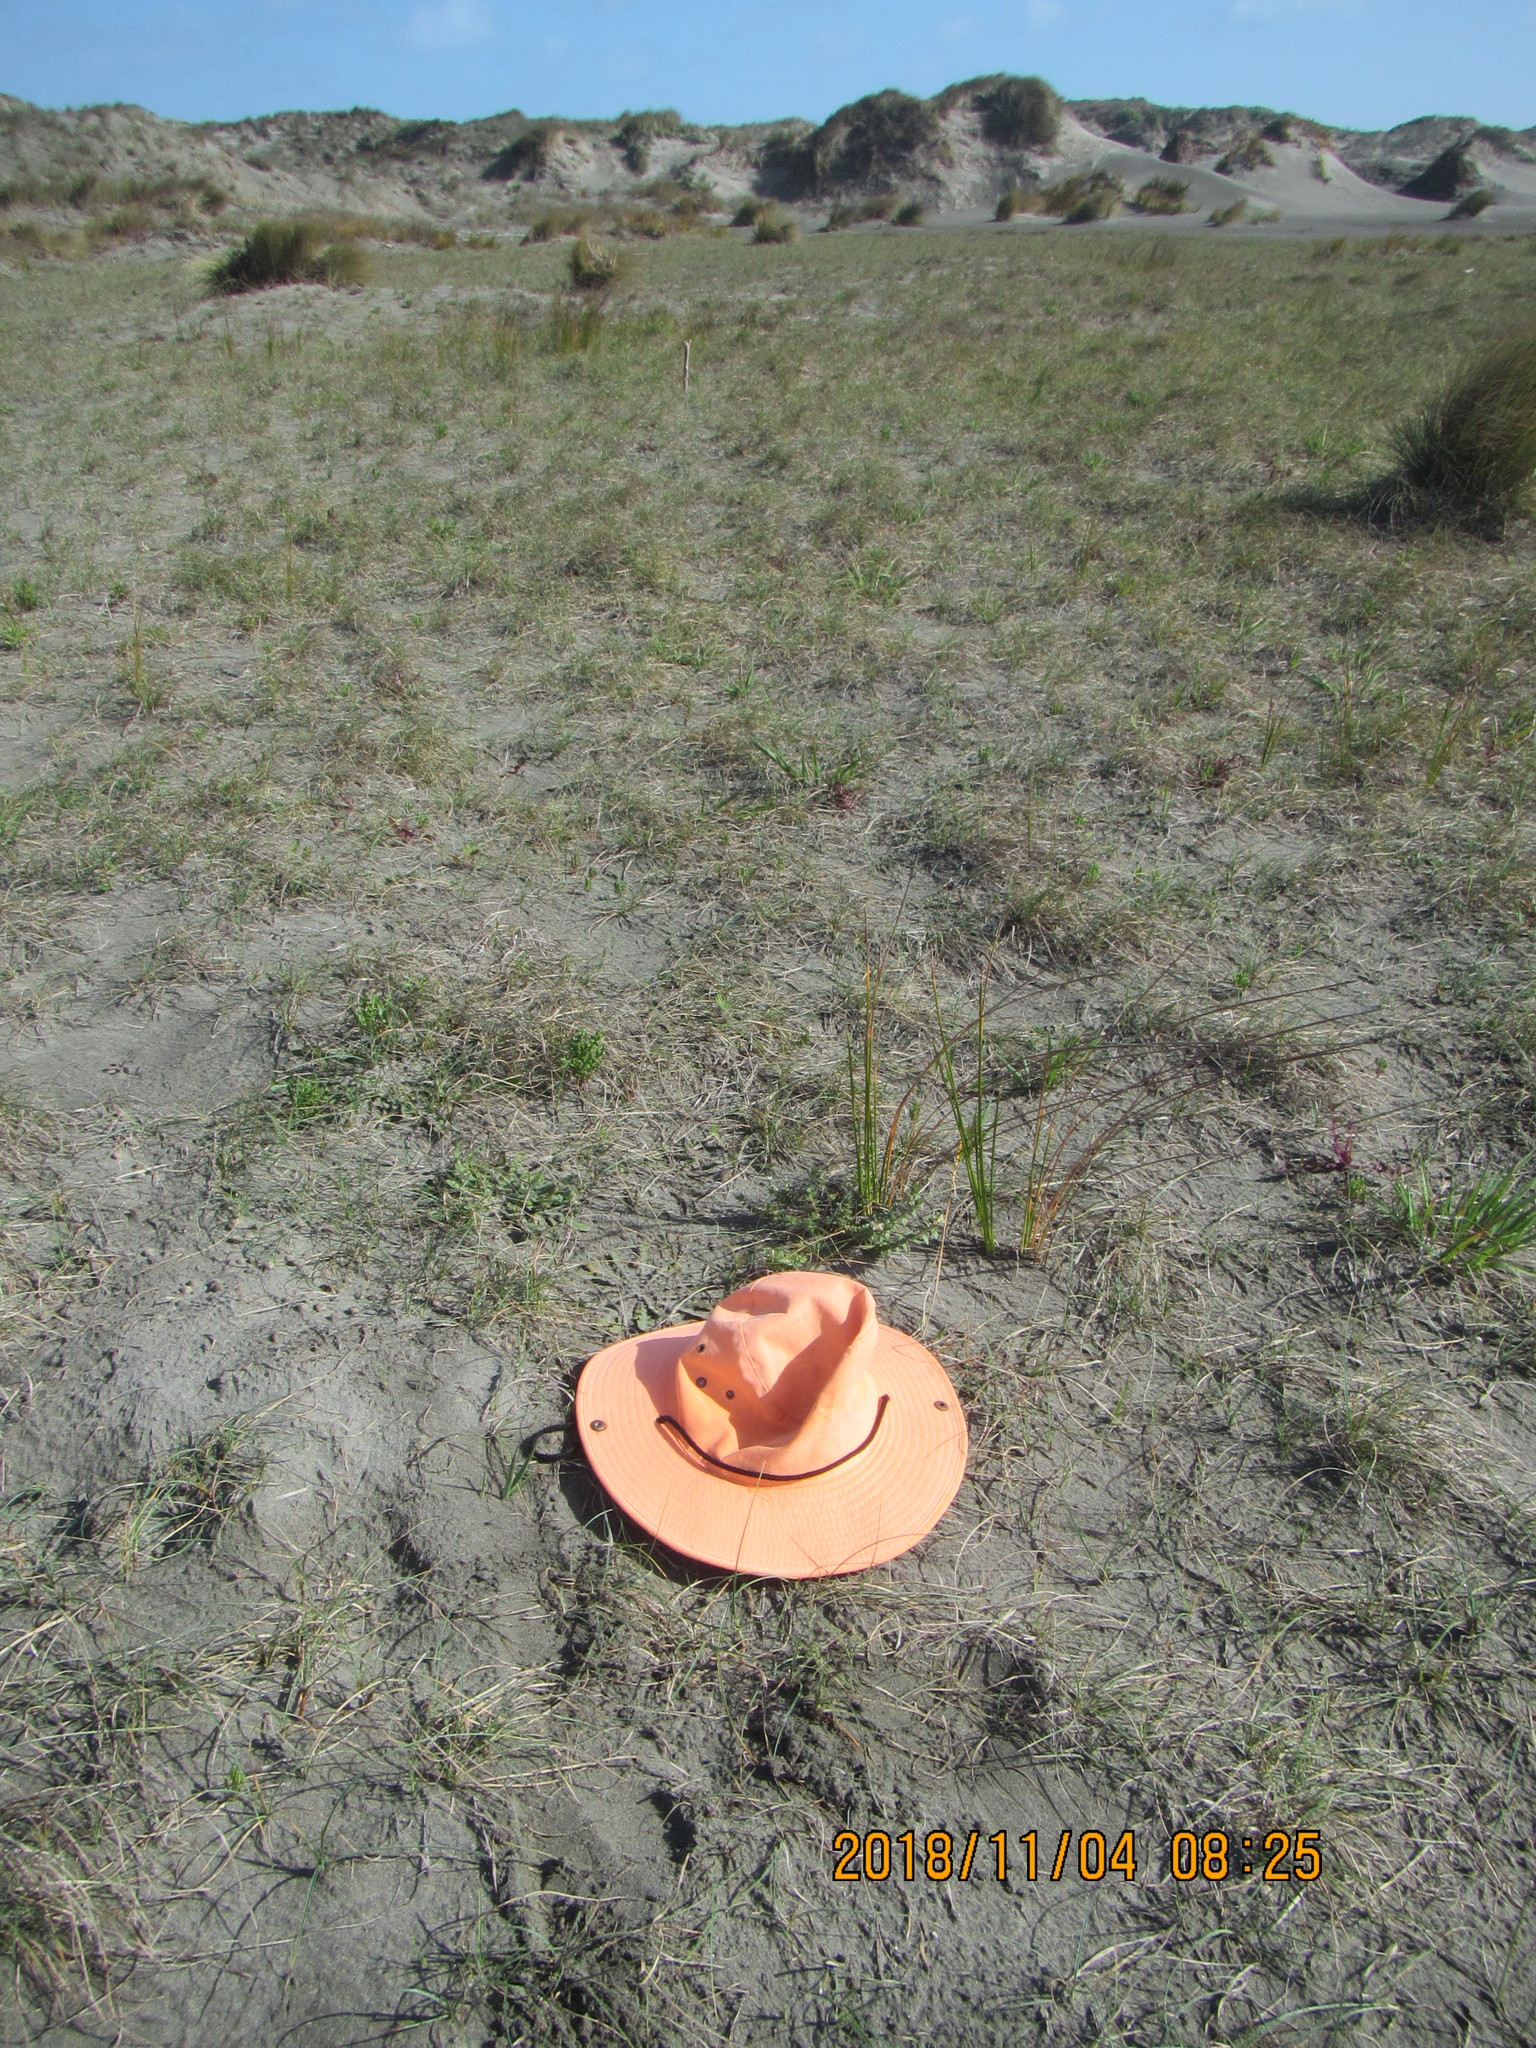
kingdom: Plantae
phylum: Tracheophyta
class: Magnoliopsida
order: Malvales
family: Thymelaeaceae
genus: Pimelea
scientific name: Pimelea villosa
